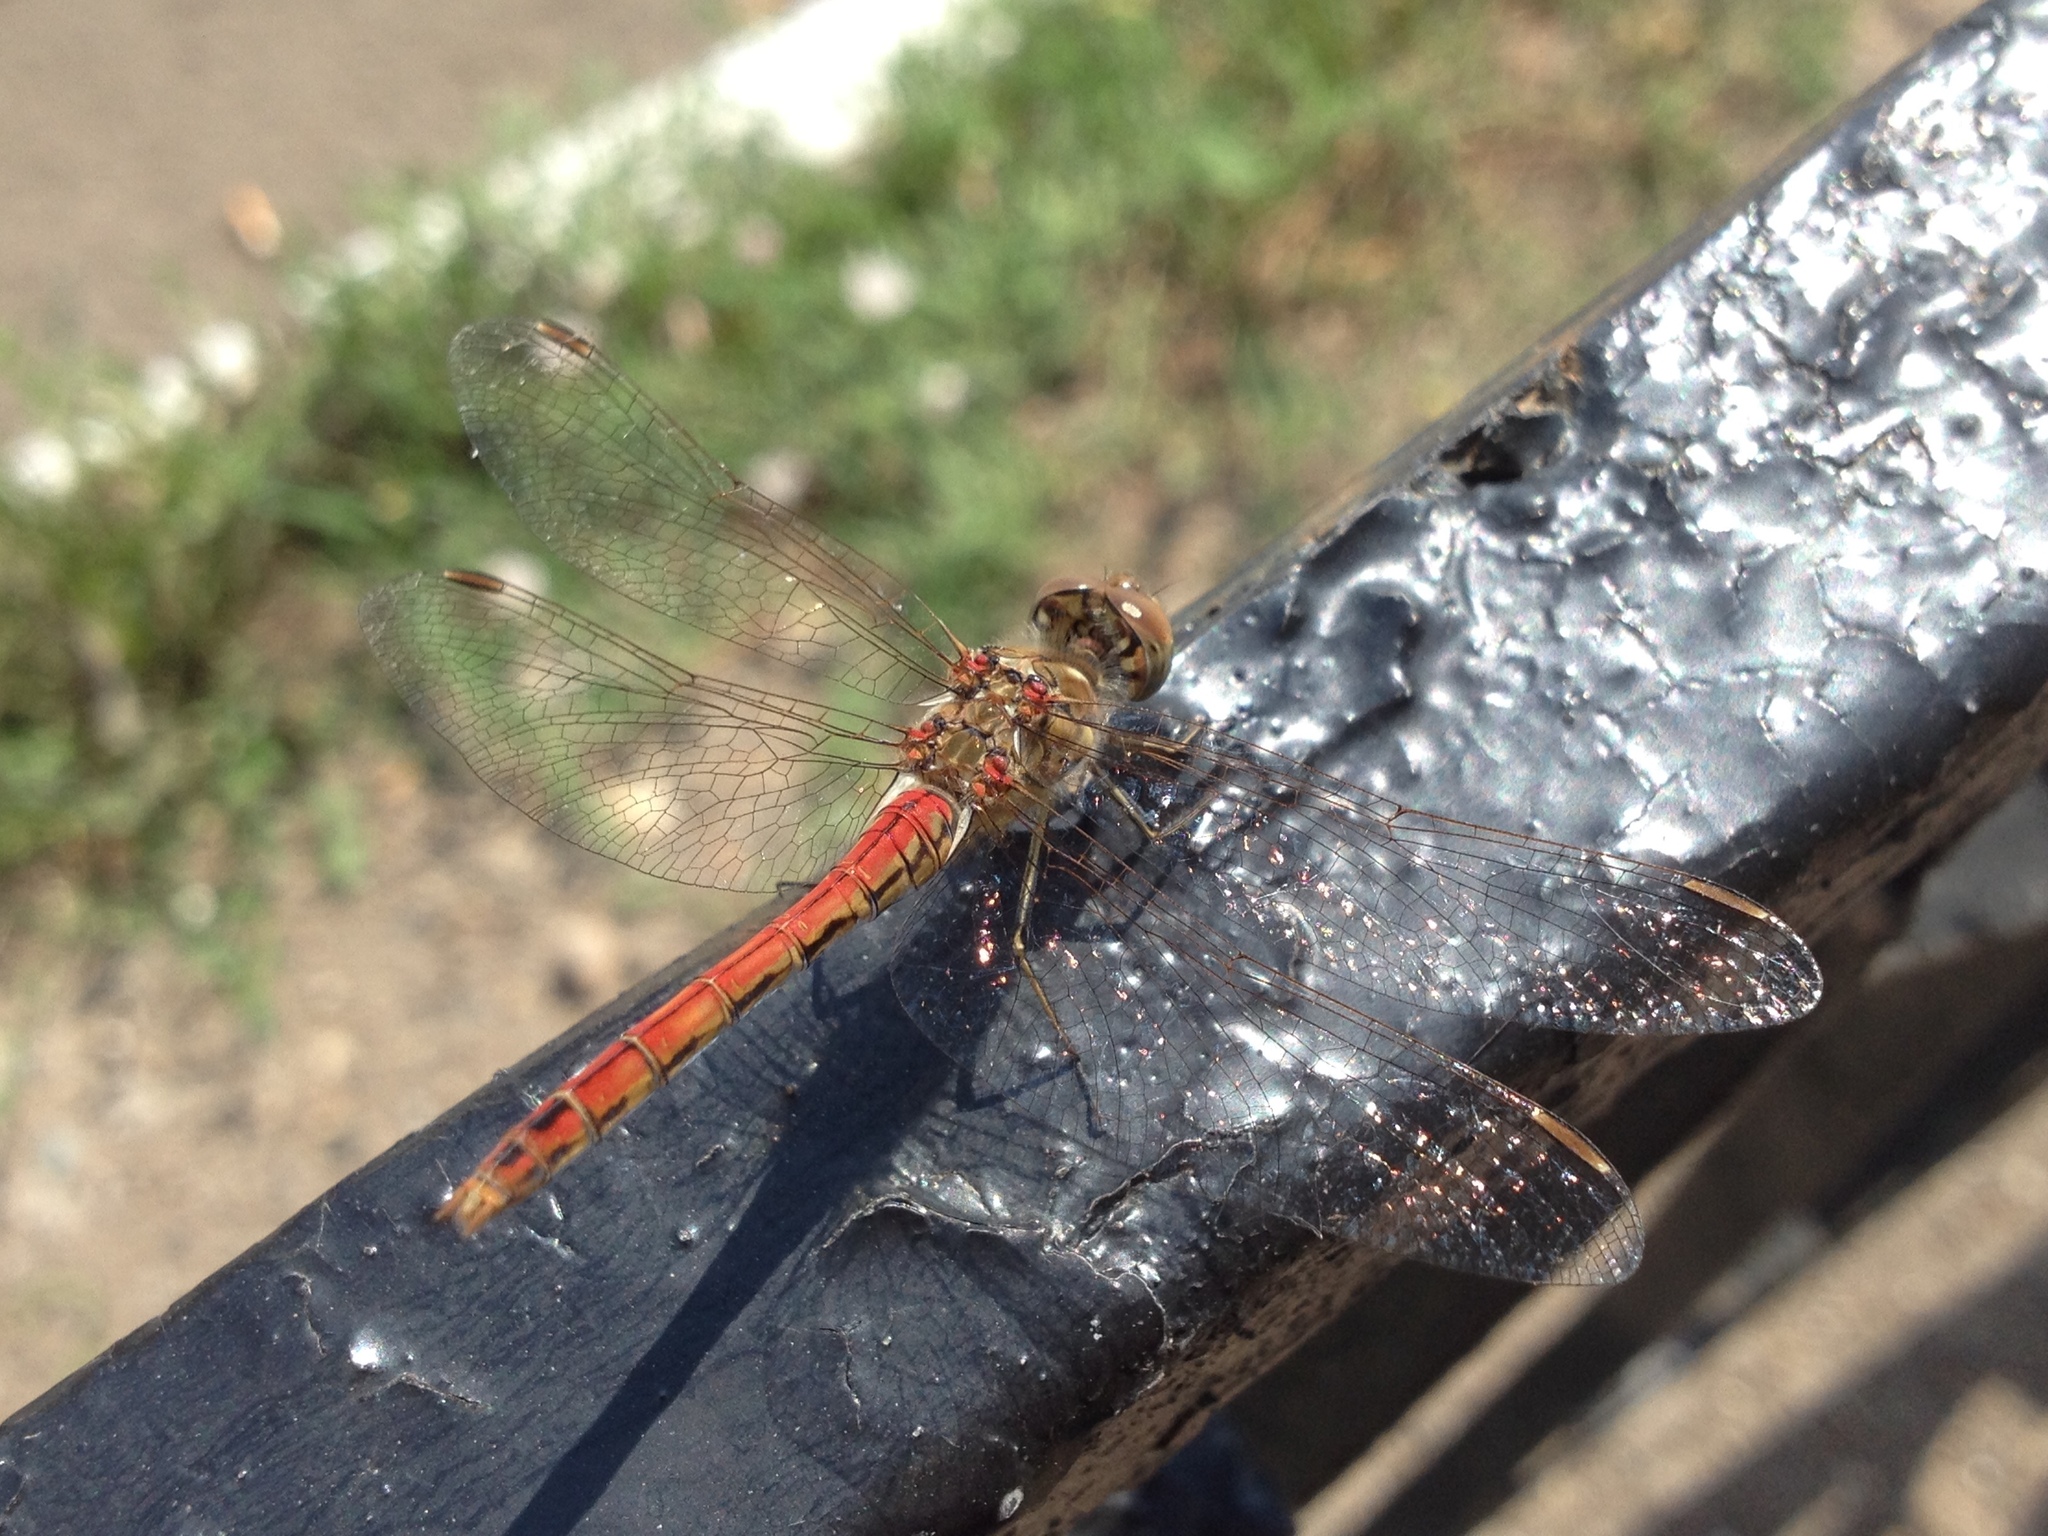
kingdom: Animalia
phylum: Arthropoda
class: Insecta
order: Odonata
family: Libellulidae
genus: Sympetrum
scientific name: Sympetrum vulgatum
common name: Vagrant darter
